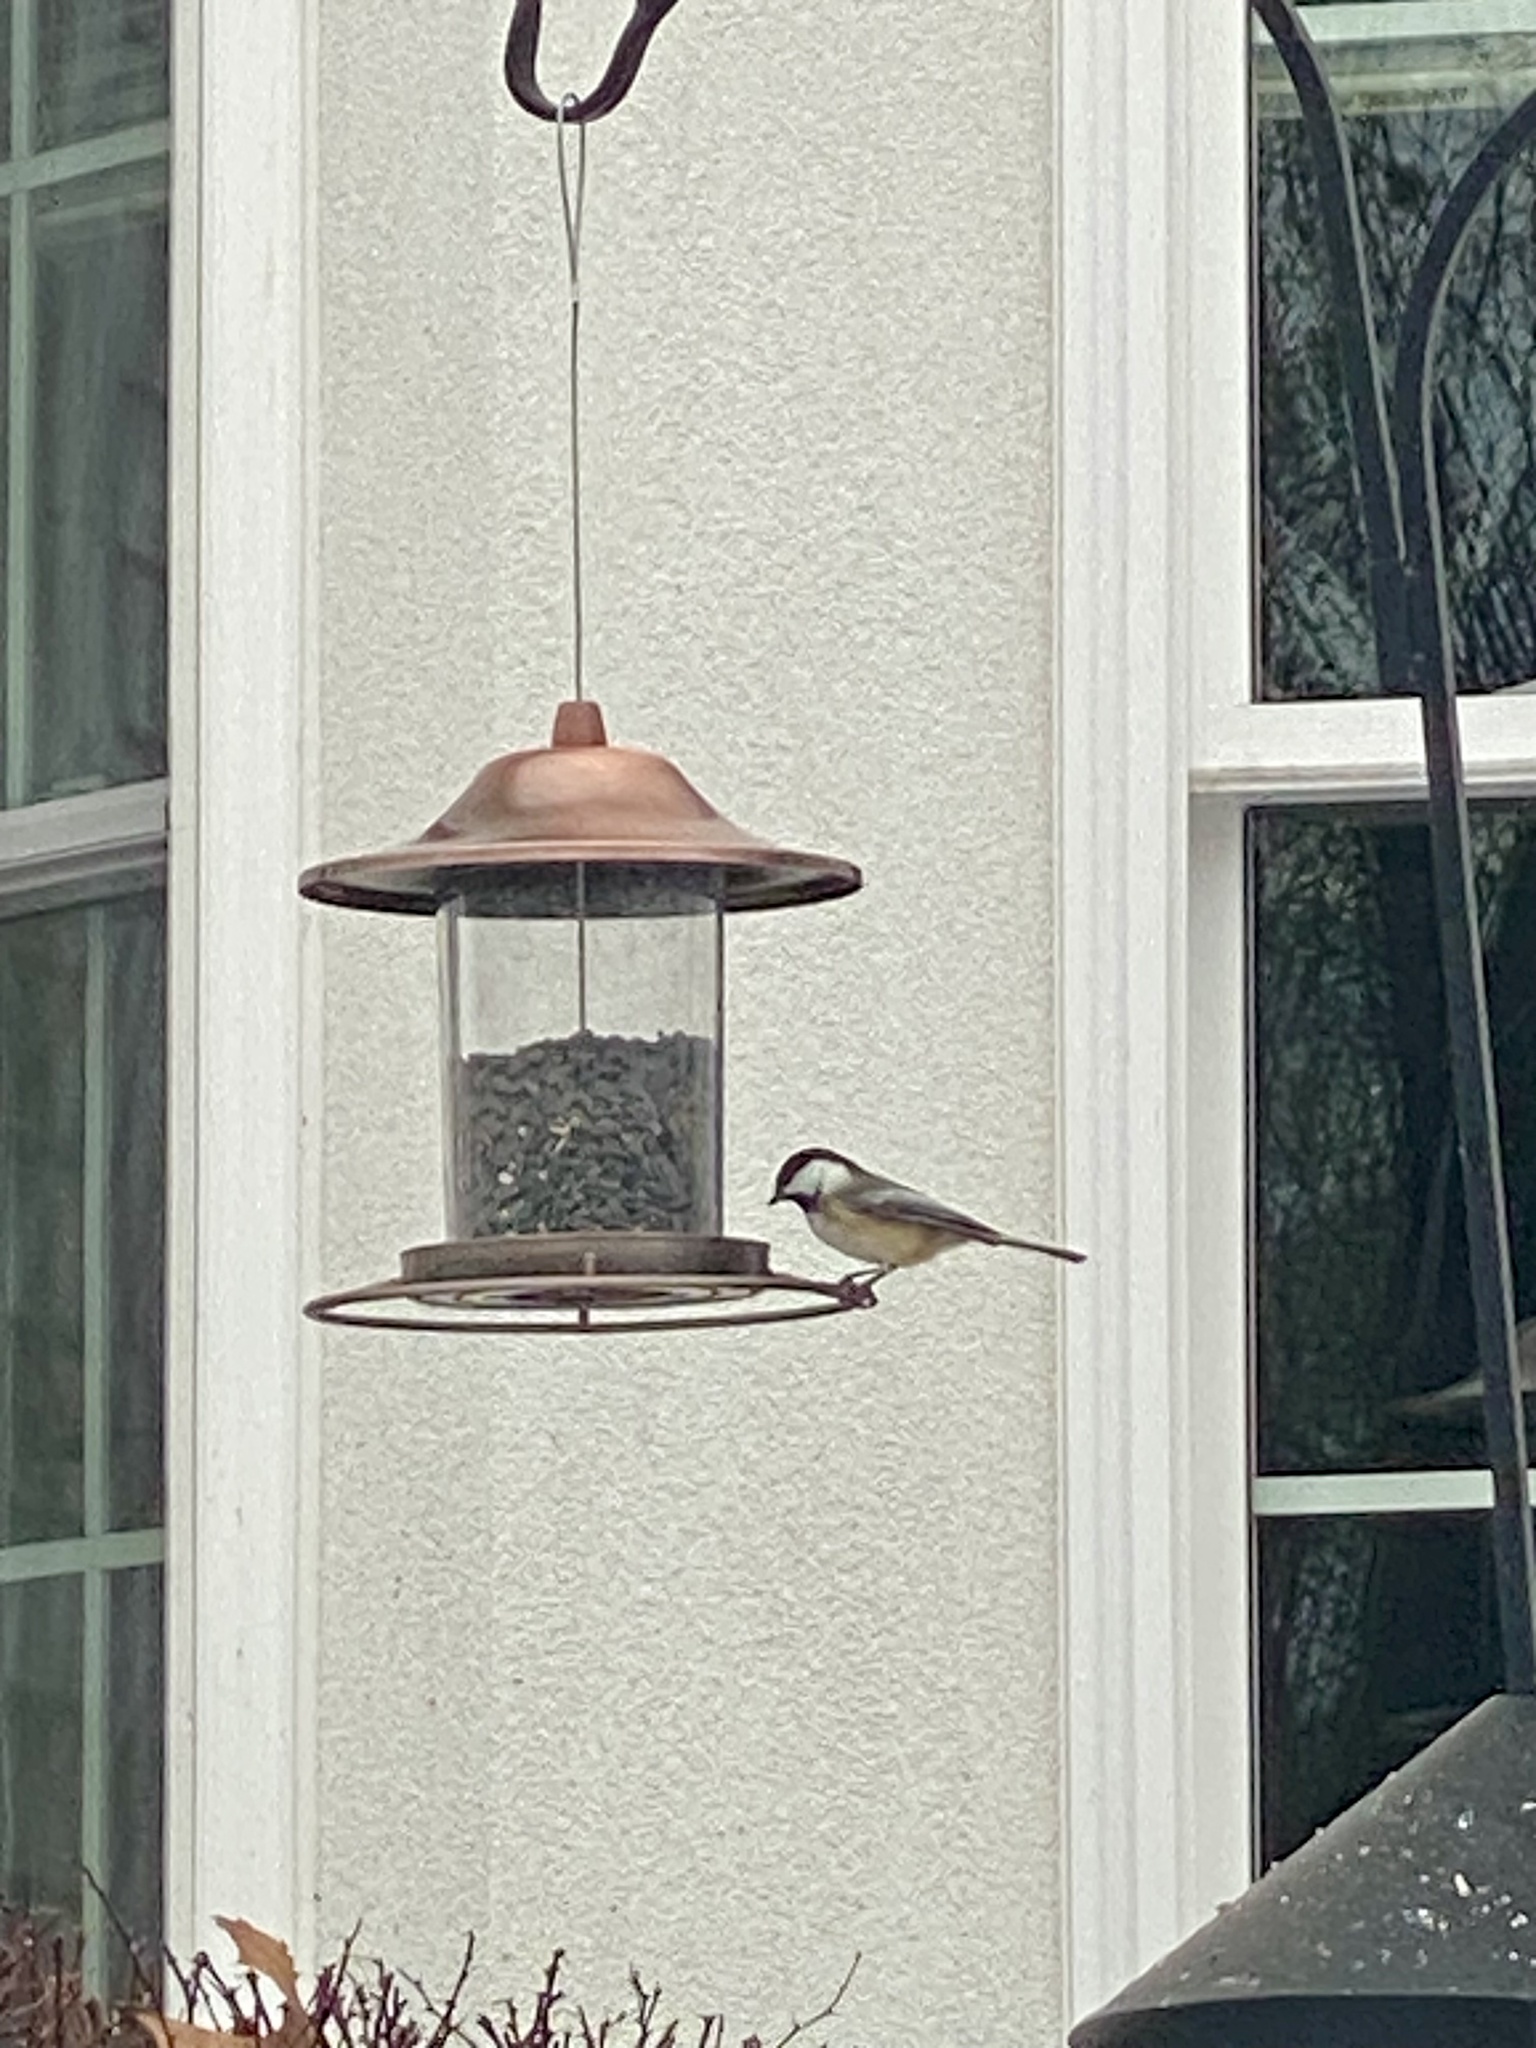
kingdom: Animalia
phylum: Chordata
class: Aves
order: Passeriformes
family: Paridae
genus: Poecile
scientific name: Poecile atricapillus
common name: Black-capped chickadee
